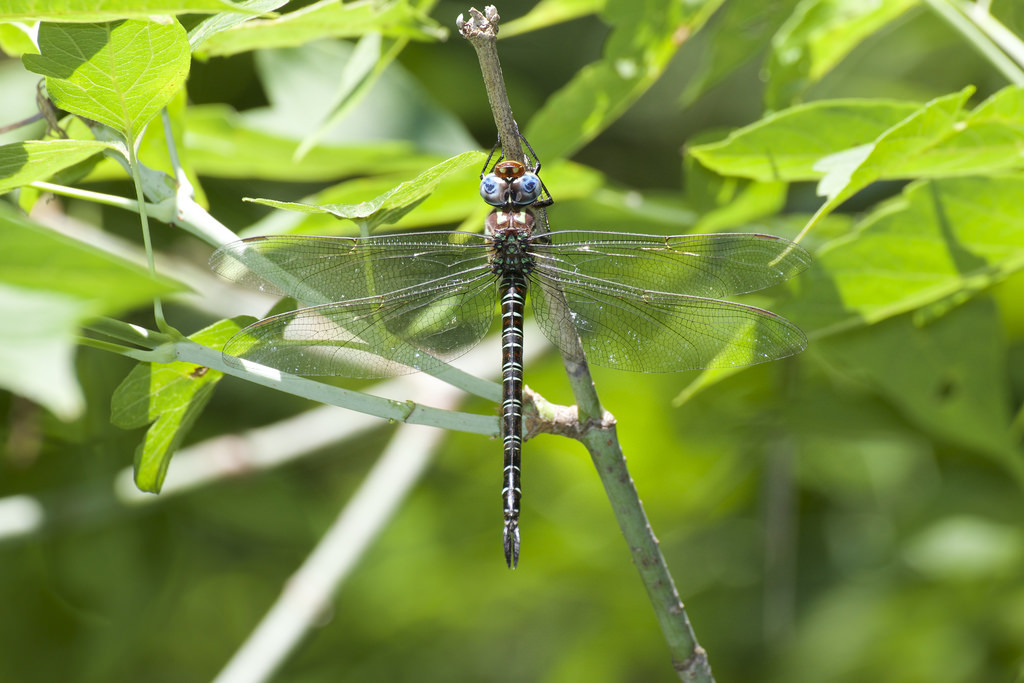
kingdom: Animalia
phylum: Arthropoda
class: Insecta
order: Odonata
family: Aeshnidae
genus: Epiaeschna
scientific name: Epiaeschna heros
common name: Swamp darner
